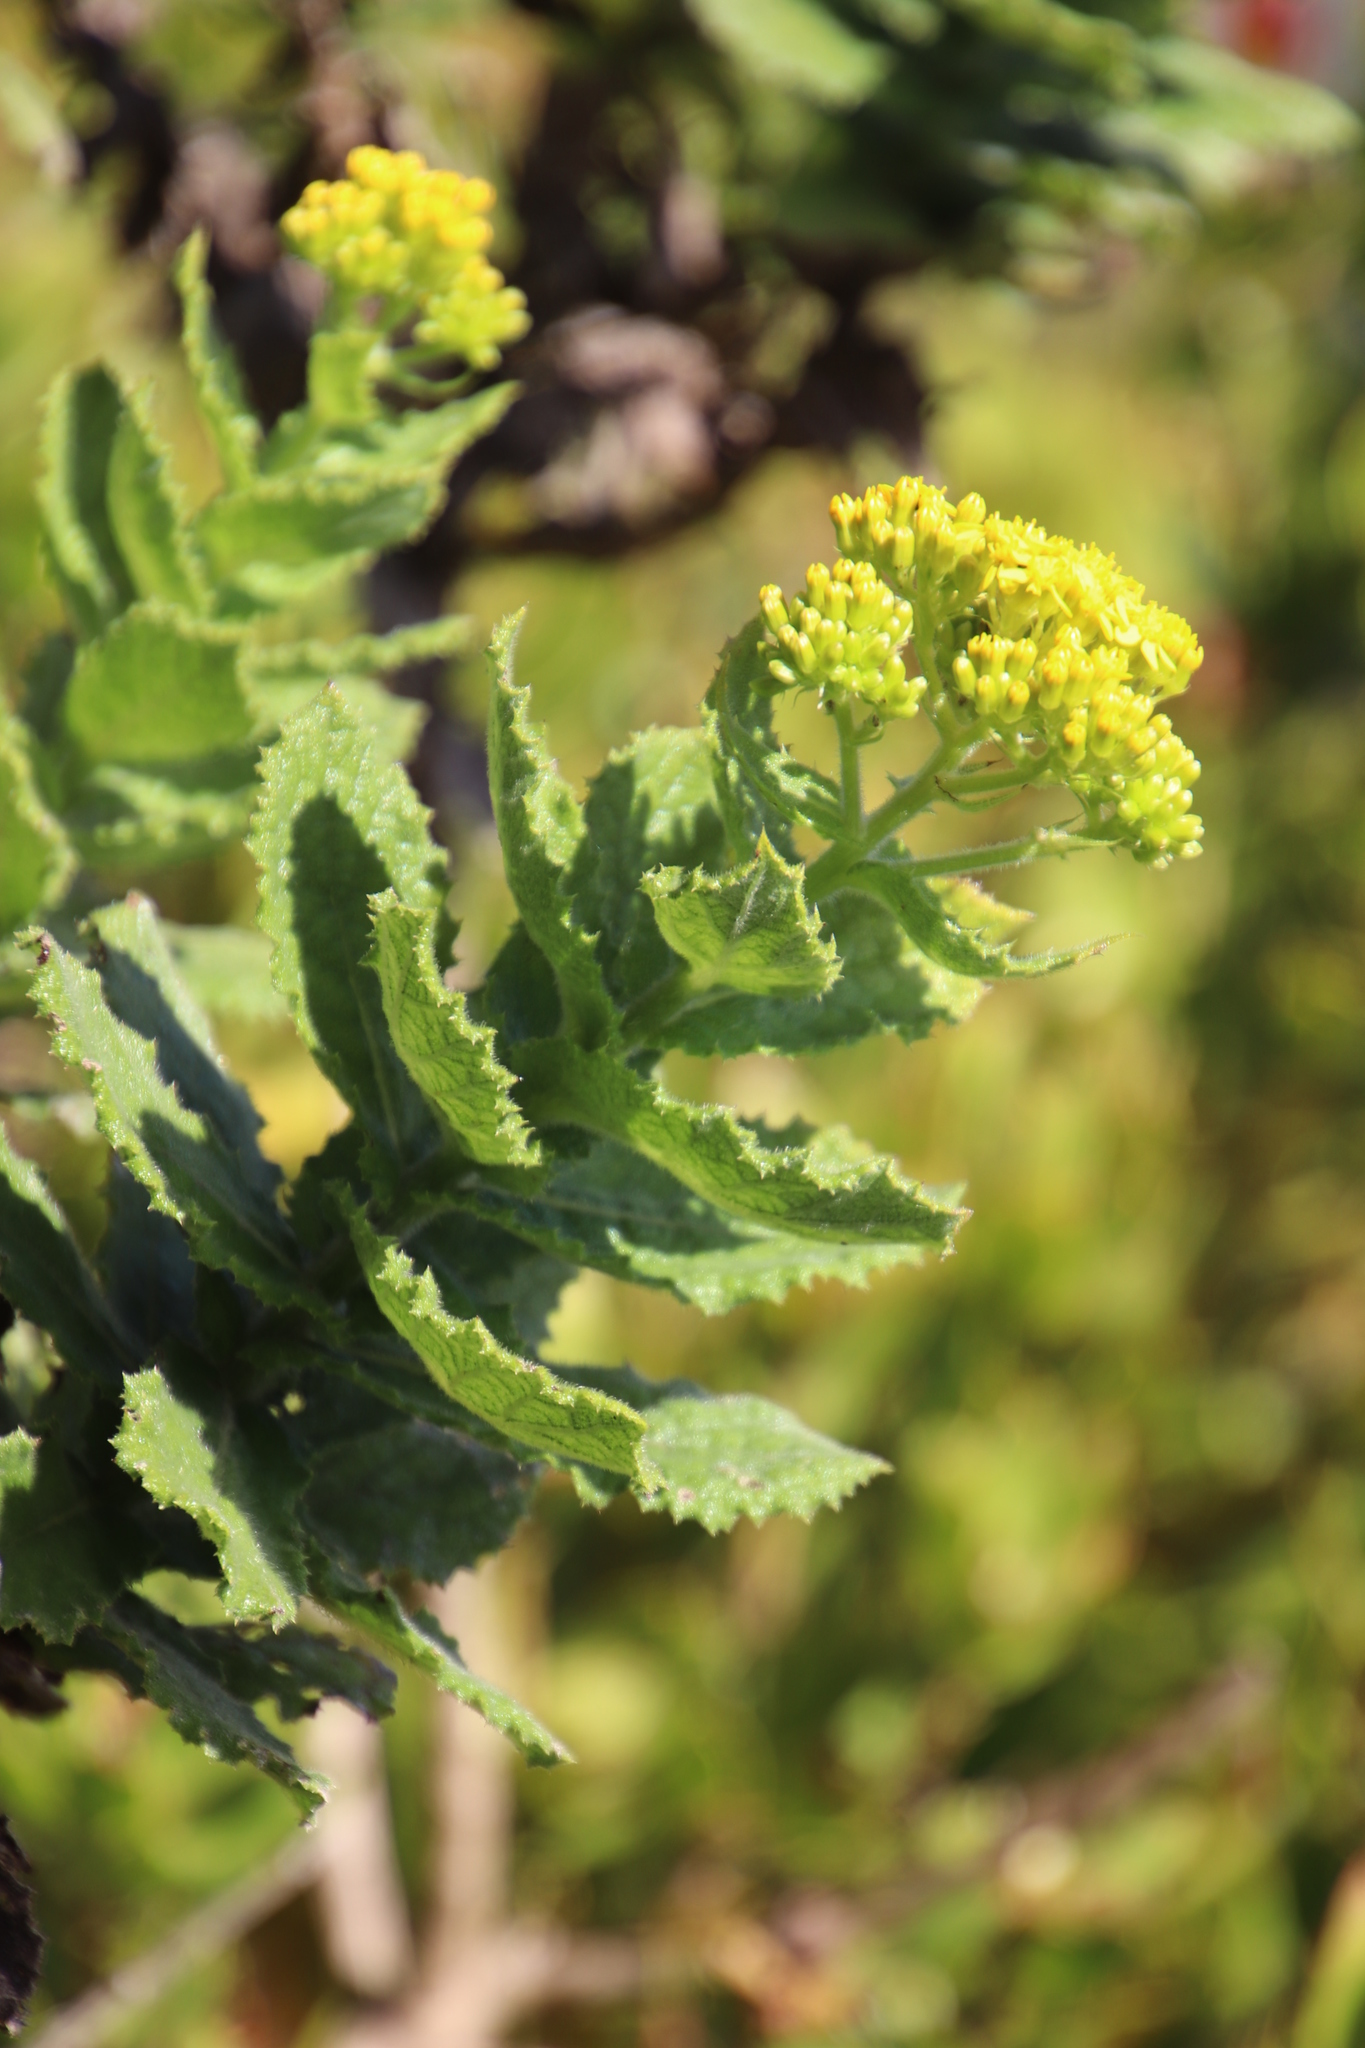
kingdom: Plantae
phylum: Tracheophyta
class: Magnoliopsida
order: Asterales
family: Asteraceae
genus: Senecio
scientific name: Senecio rigidus
